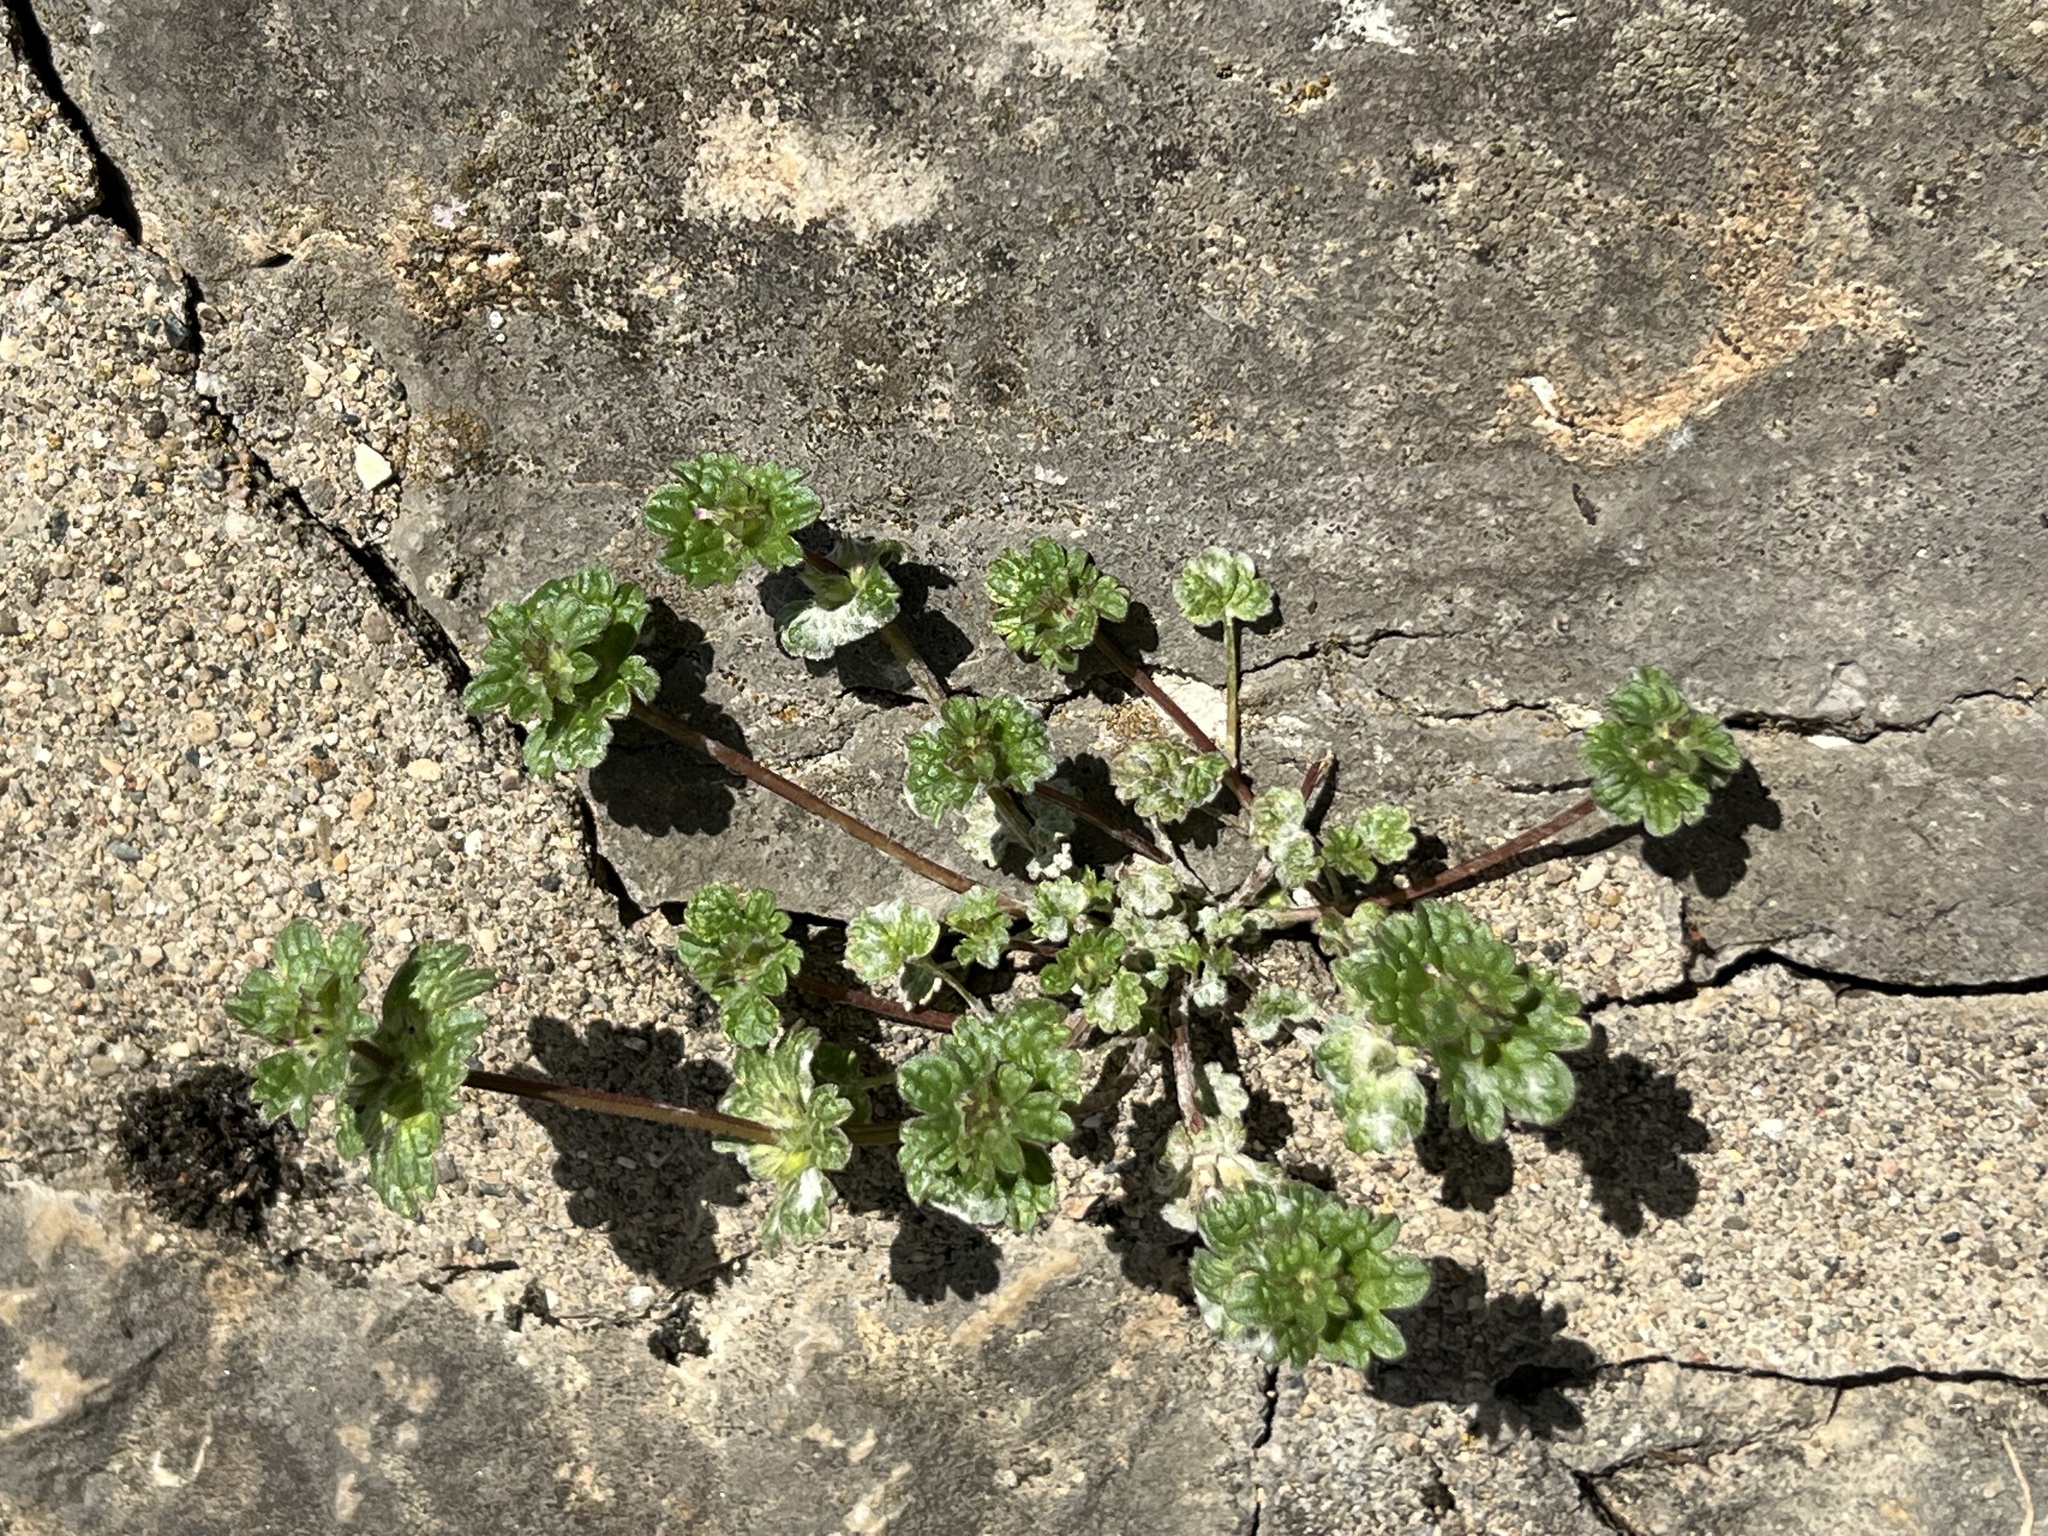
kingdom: Plantae
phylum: Tracheophyta
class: Magnoliopsida
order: Lamiales
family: Lamiaceae
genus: Lamium
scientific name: Lamium amplexicaule
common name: Henbit dead-nettle
